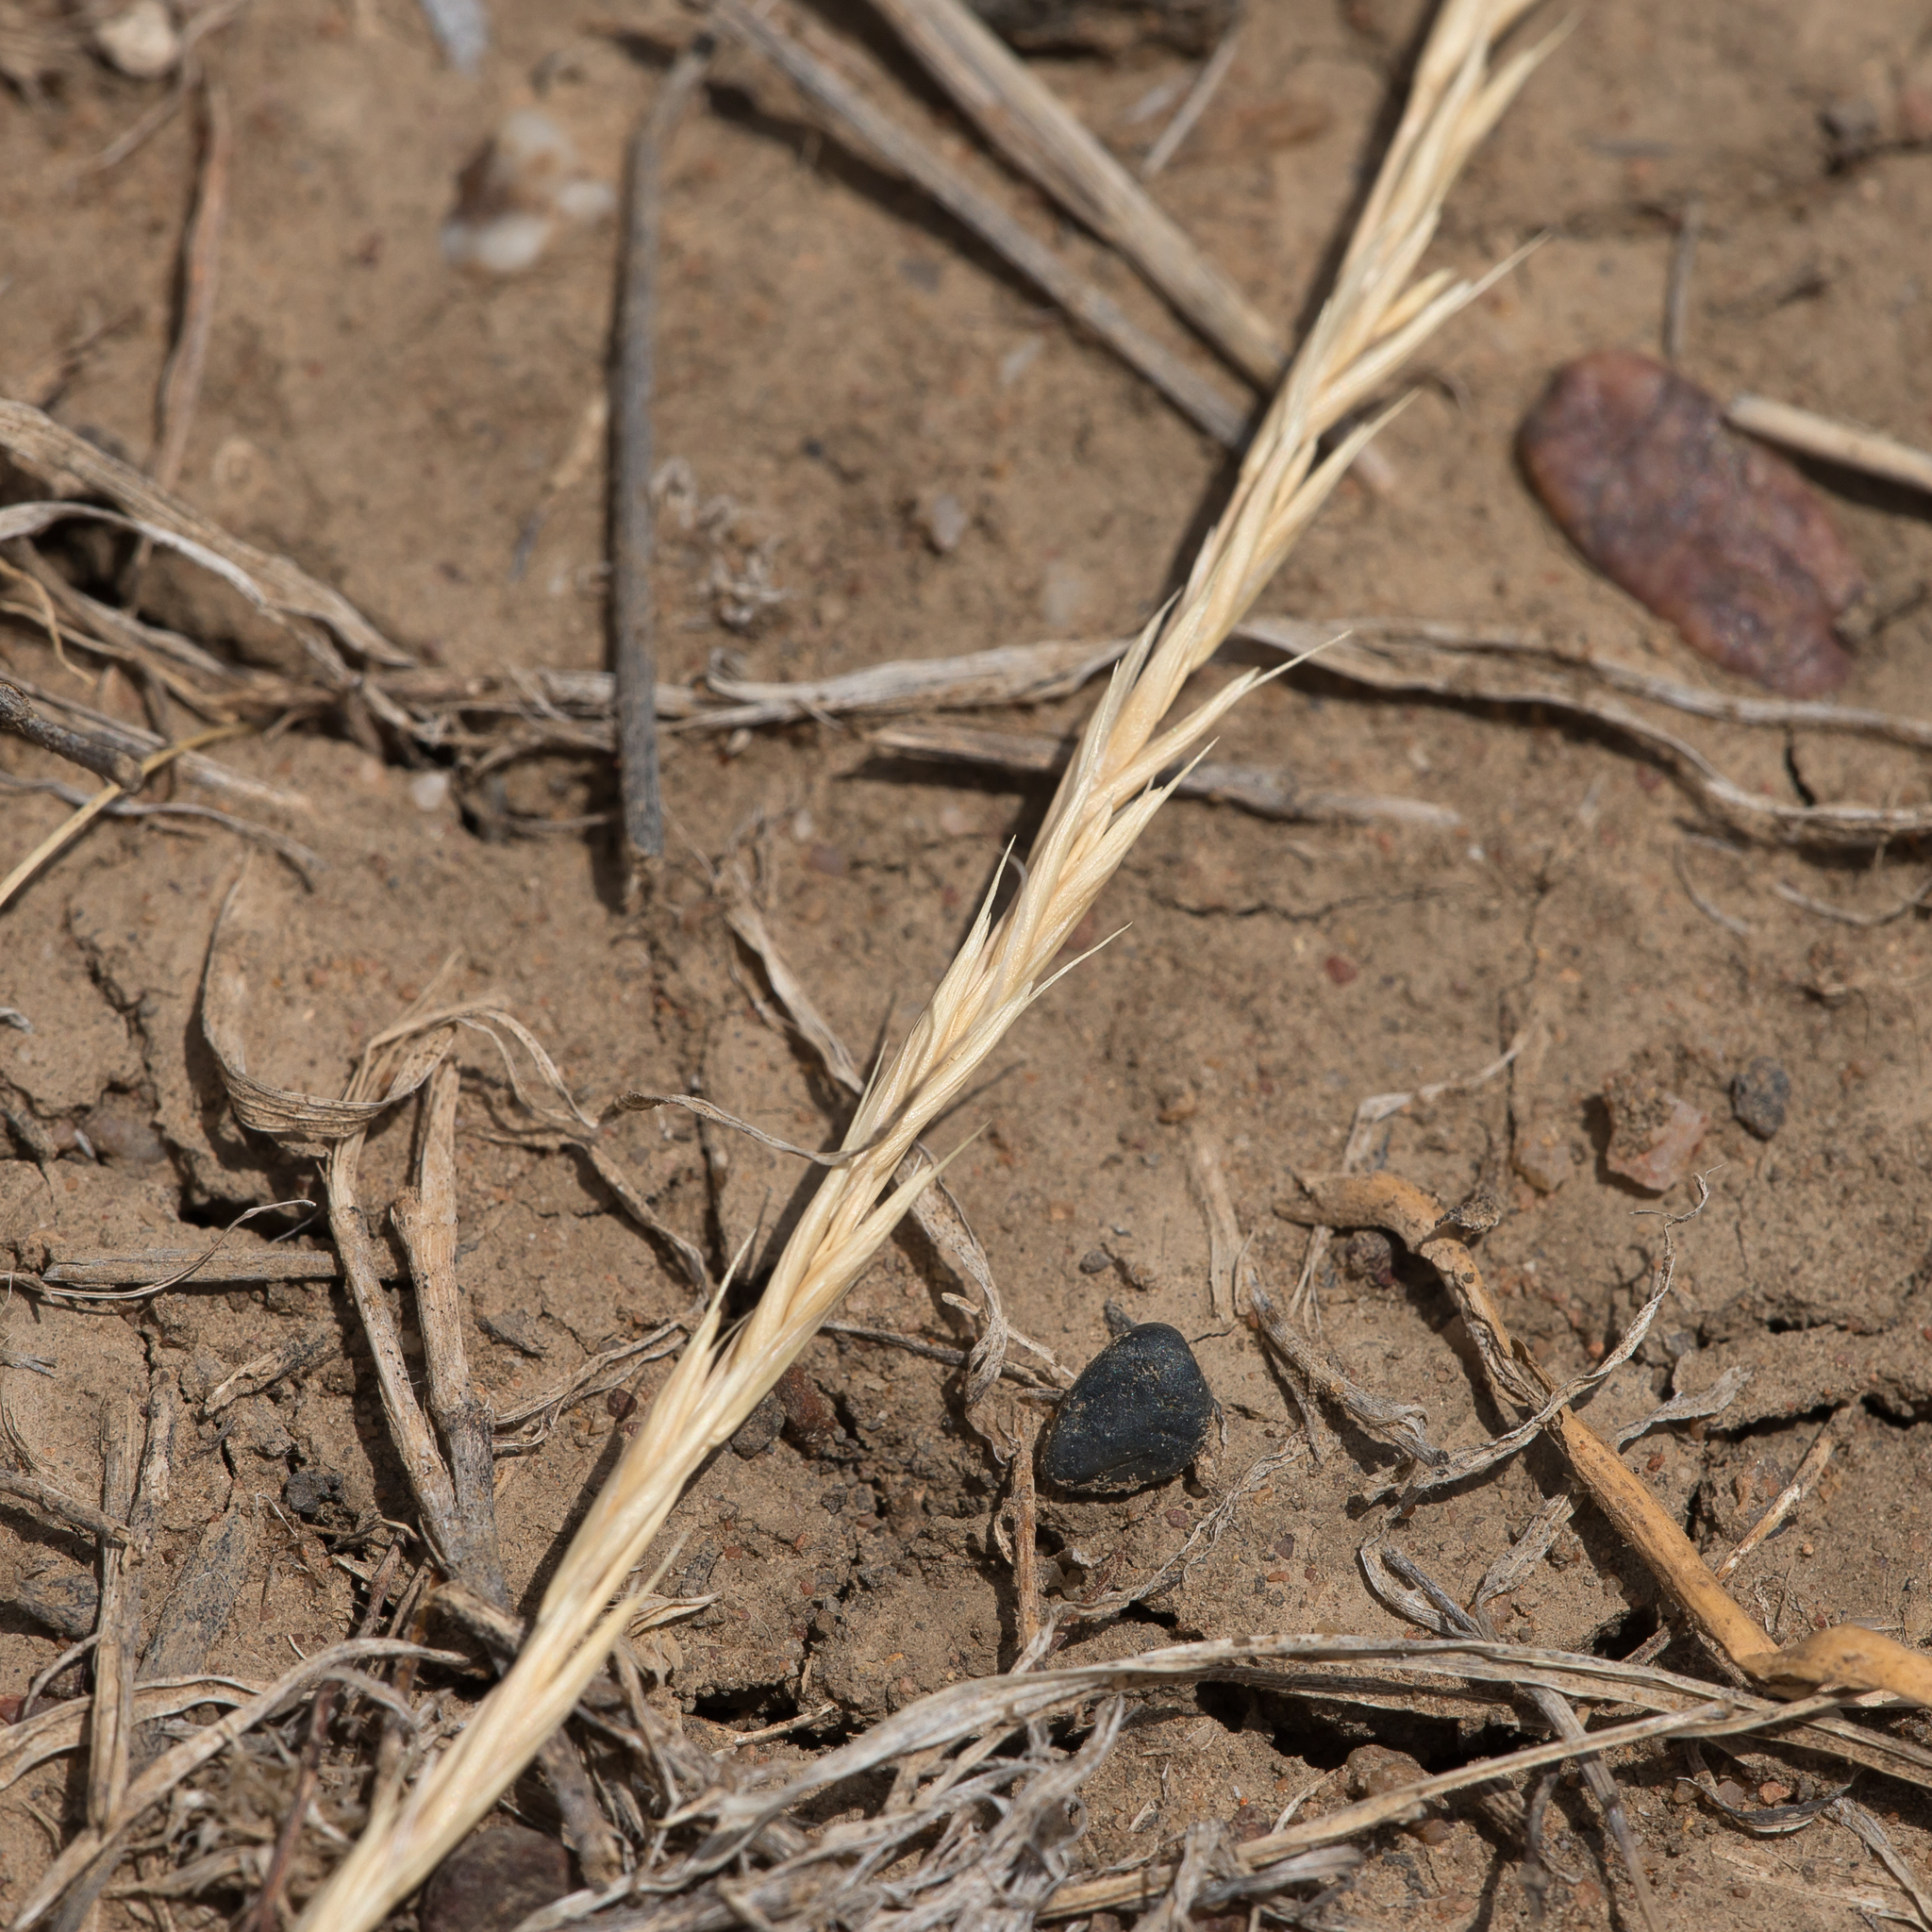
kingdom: Plantae
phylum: Tracheophyta
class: Liliopsida
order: Poales
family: Poaceae
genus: Astrebla
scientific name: Astrebla elymoides
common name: Hoop mitchell grass
